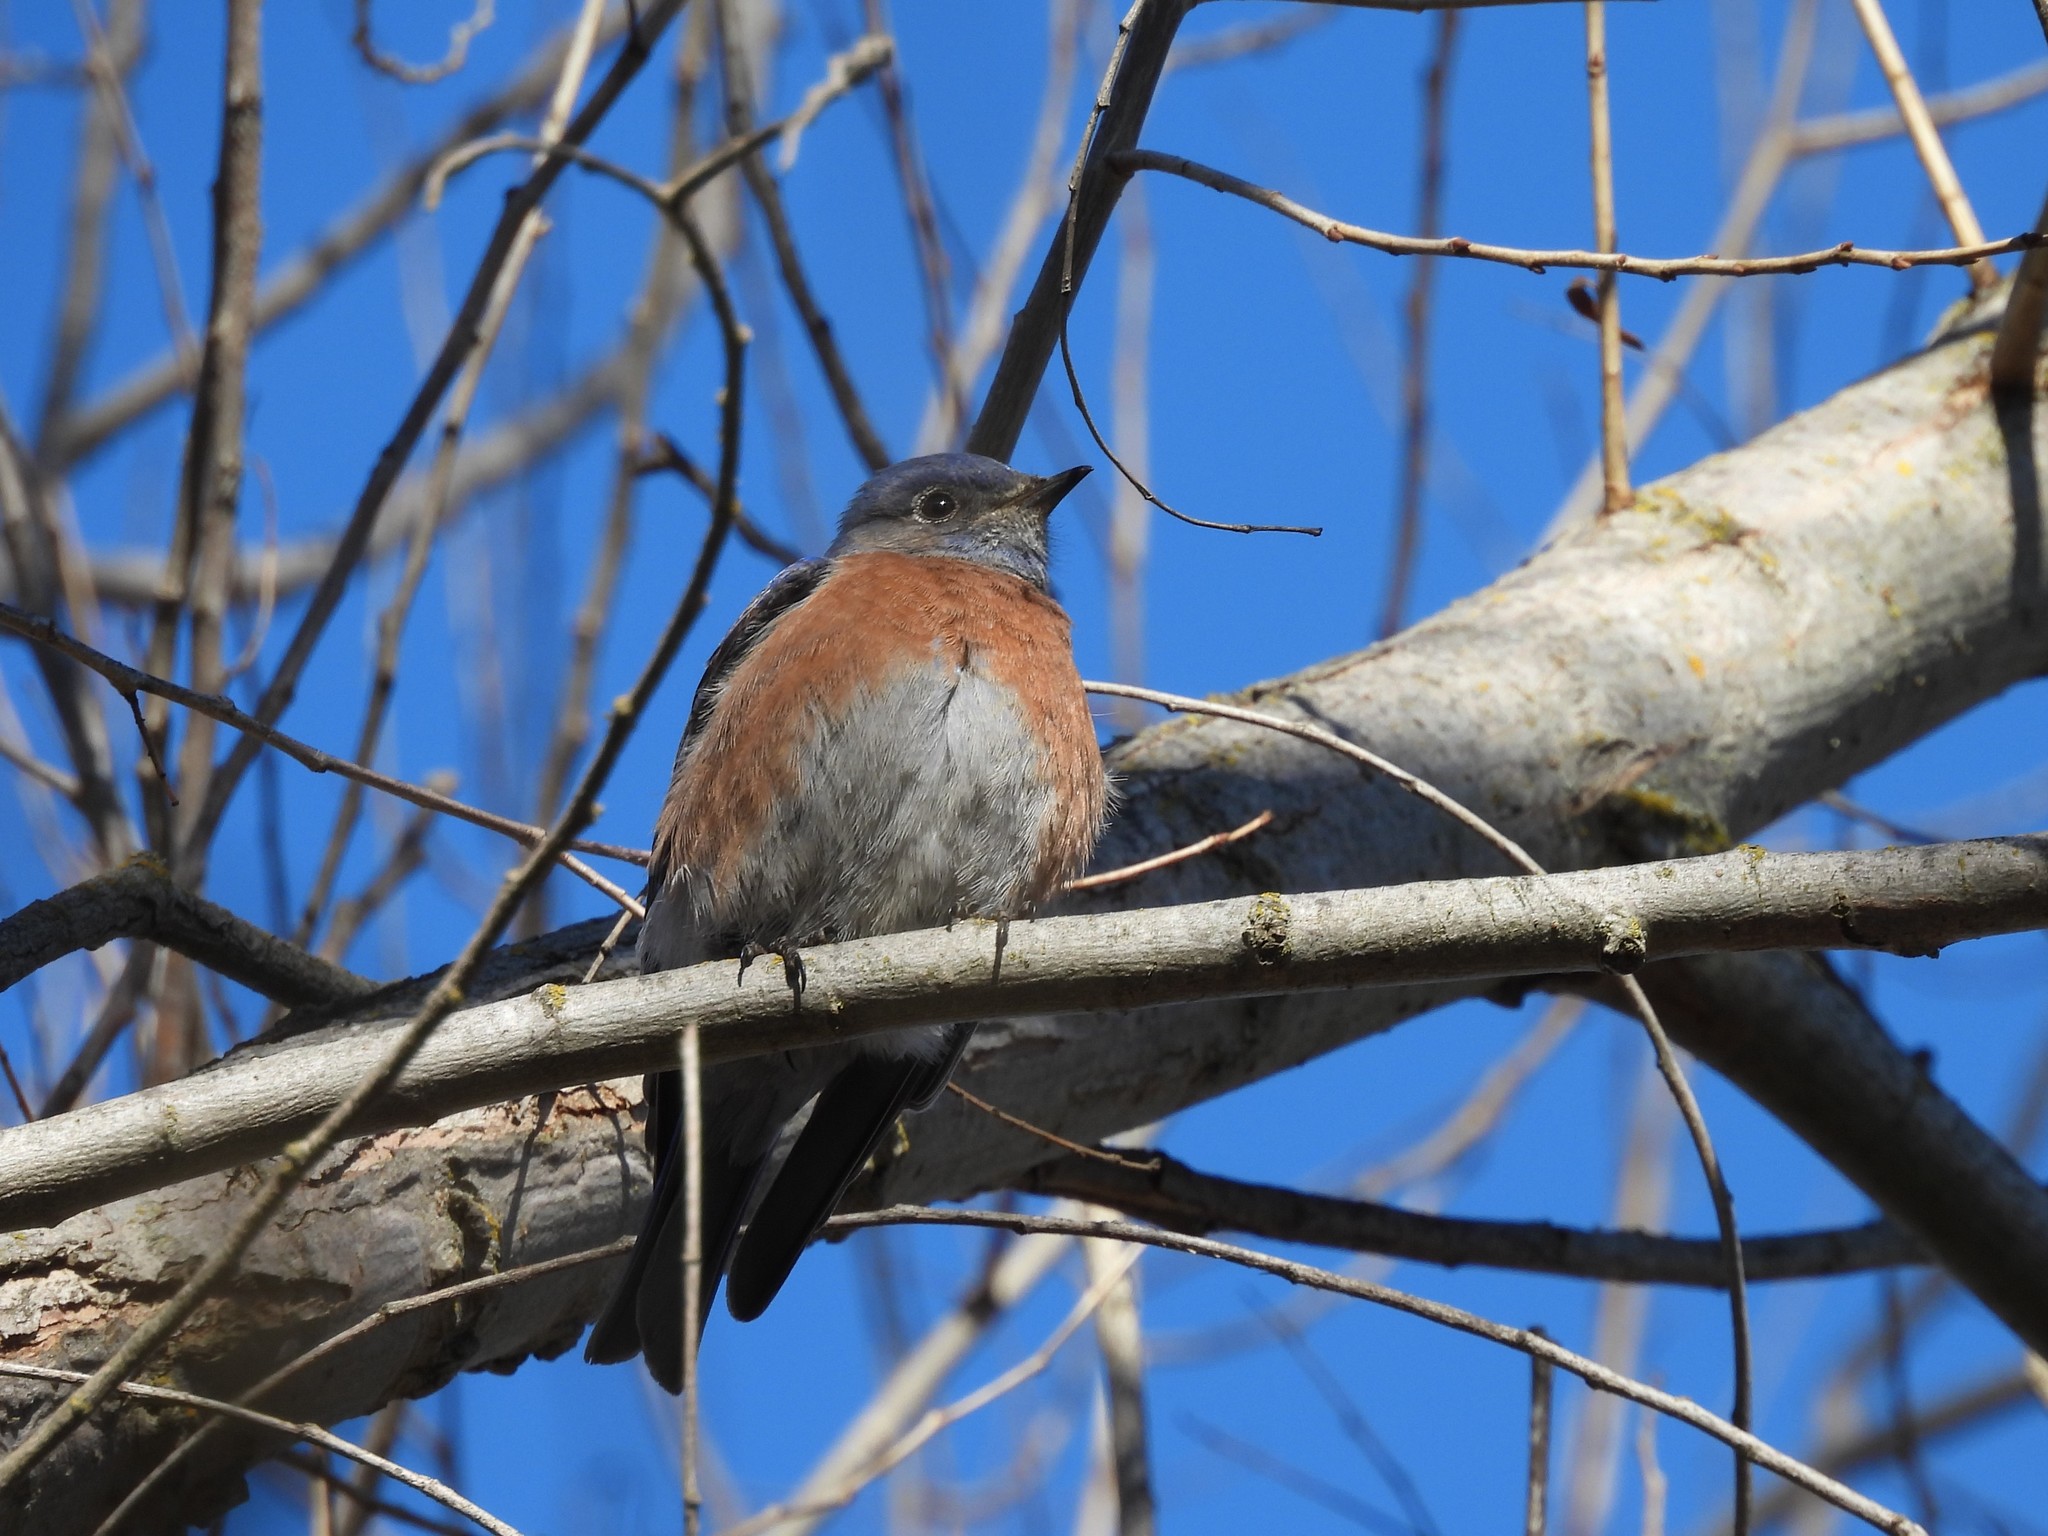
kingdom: Animalia
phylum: Chordata
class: Aves
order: Passeriformes
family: Turdidae
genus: Sialia
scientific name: Sialia mexicana
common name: Western bluebird
